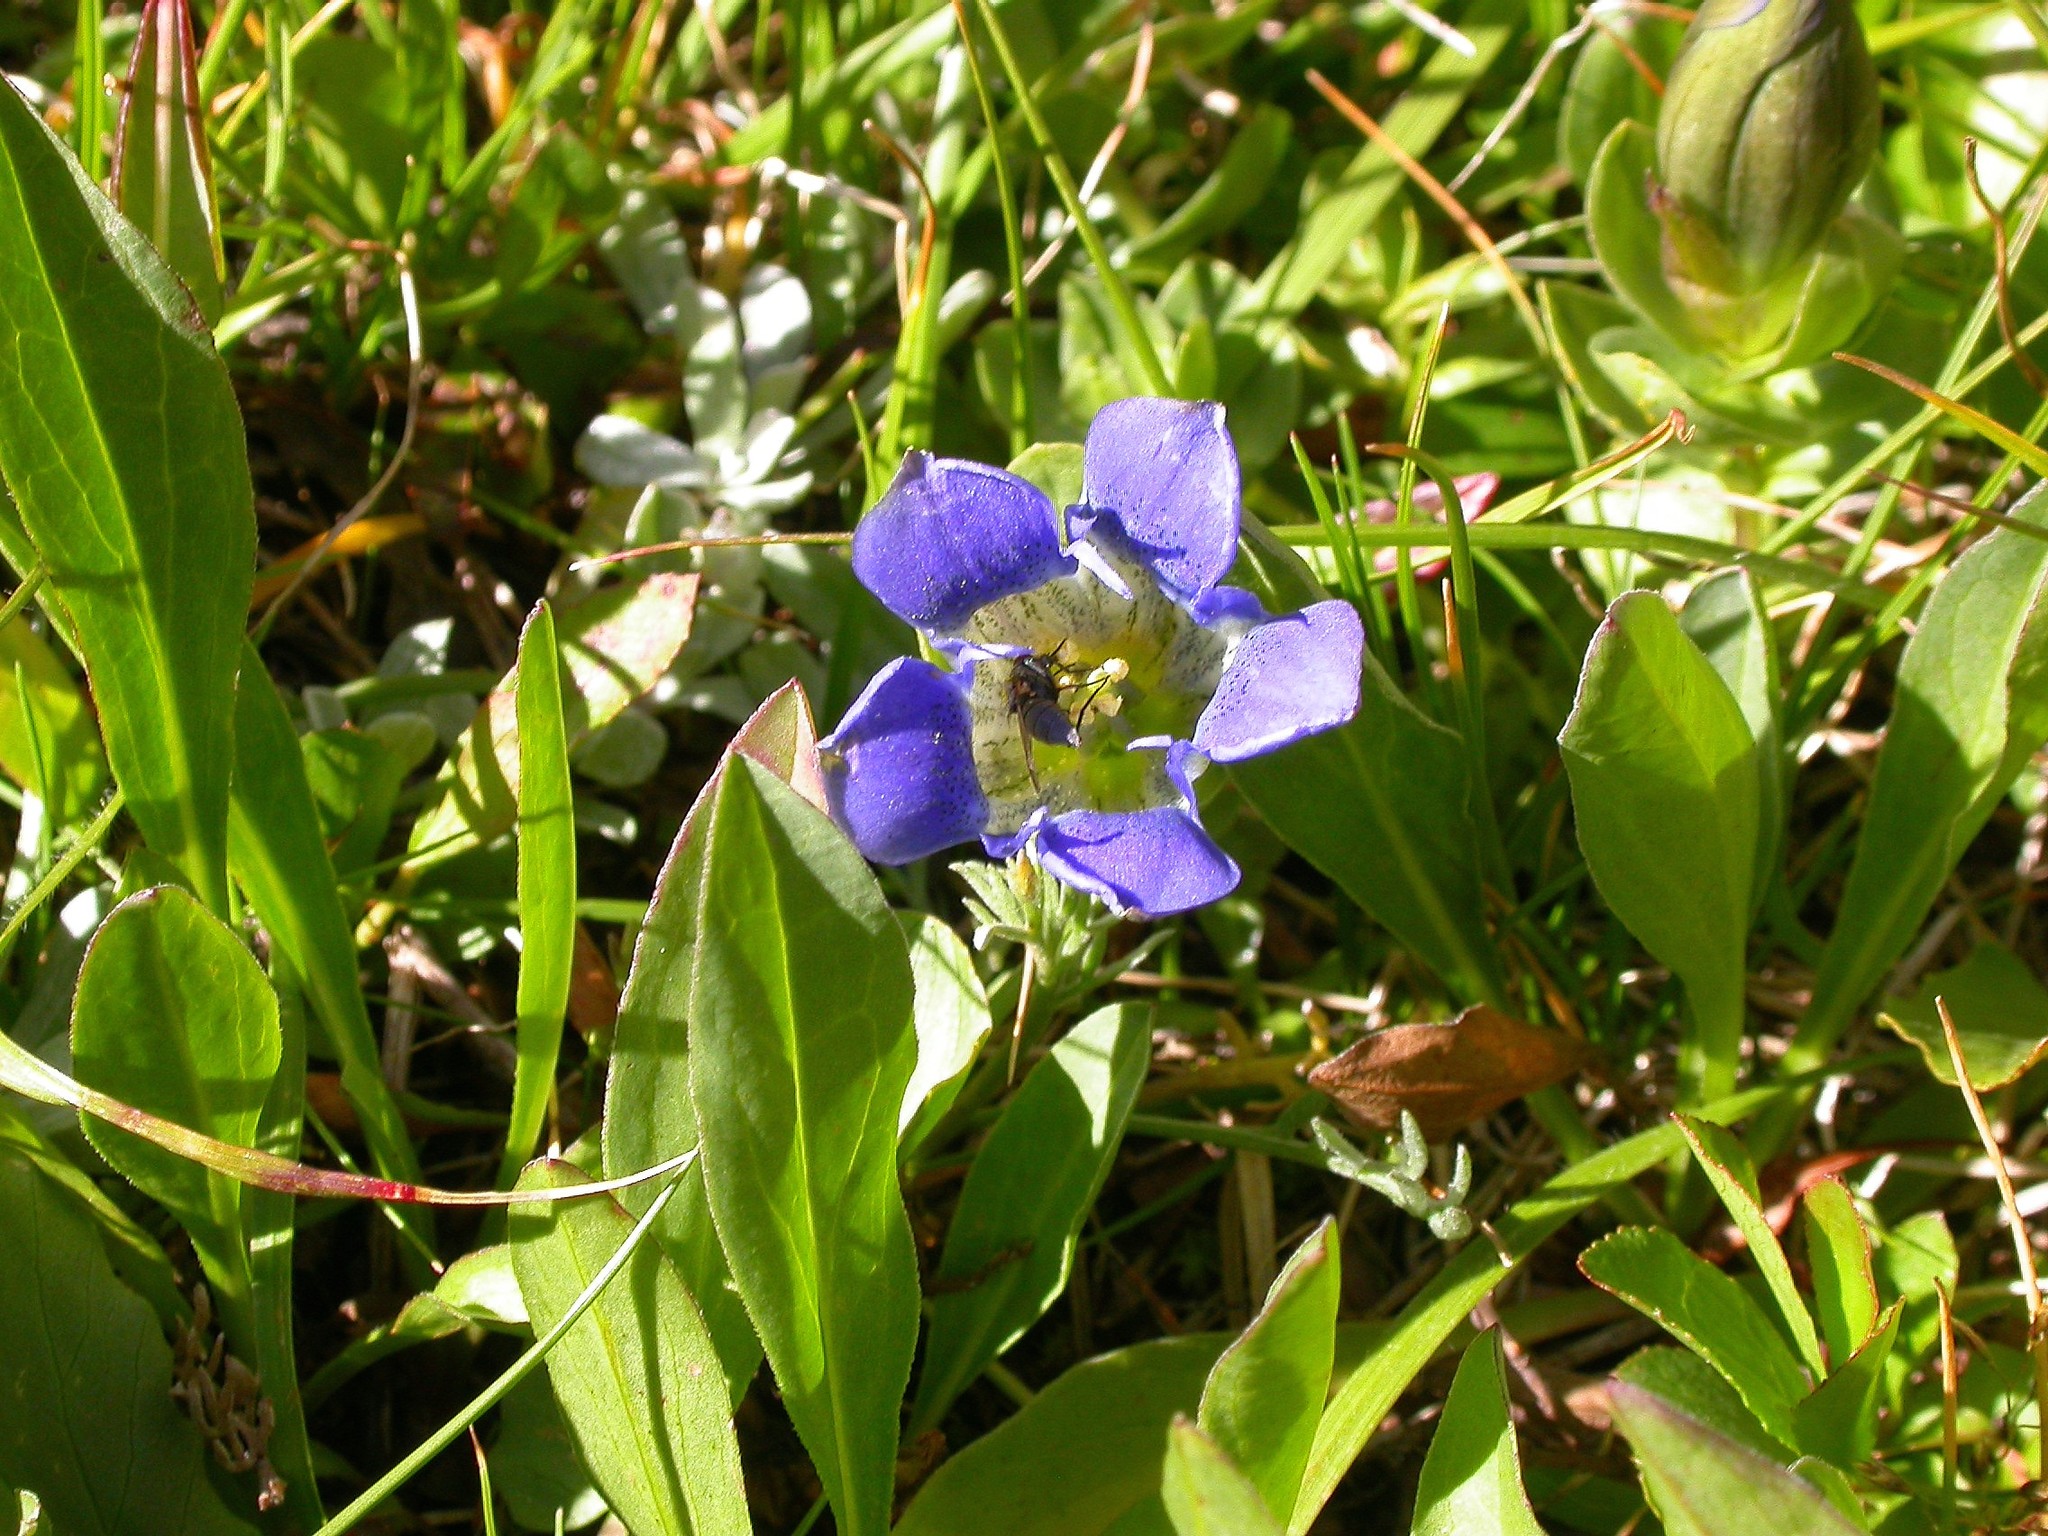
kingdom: Plantae
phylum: Tracheophyta
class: Magnoliopsida
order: Gentianales
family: Gentianaceae
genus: Gentiana
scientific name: Gentiana calycosa
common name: Rainier pleated gentian
